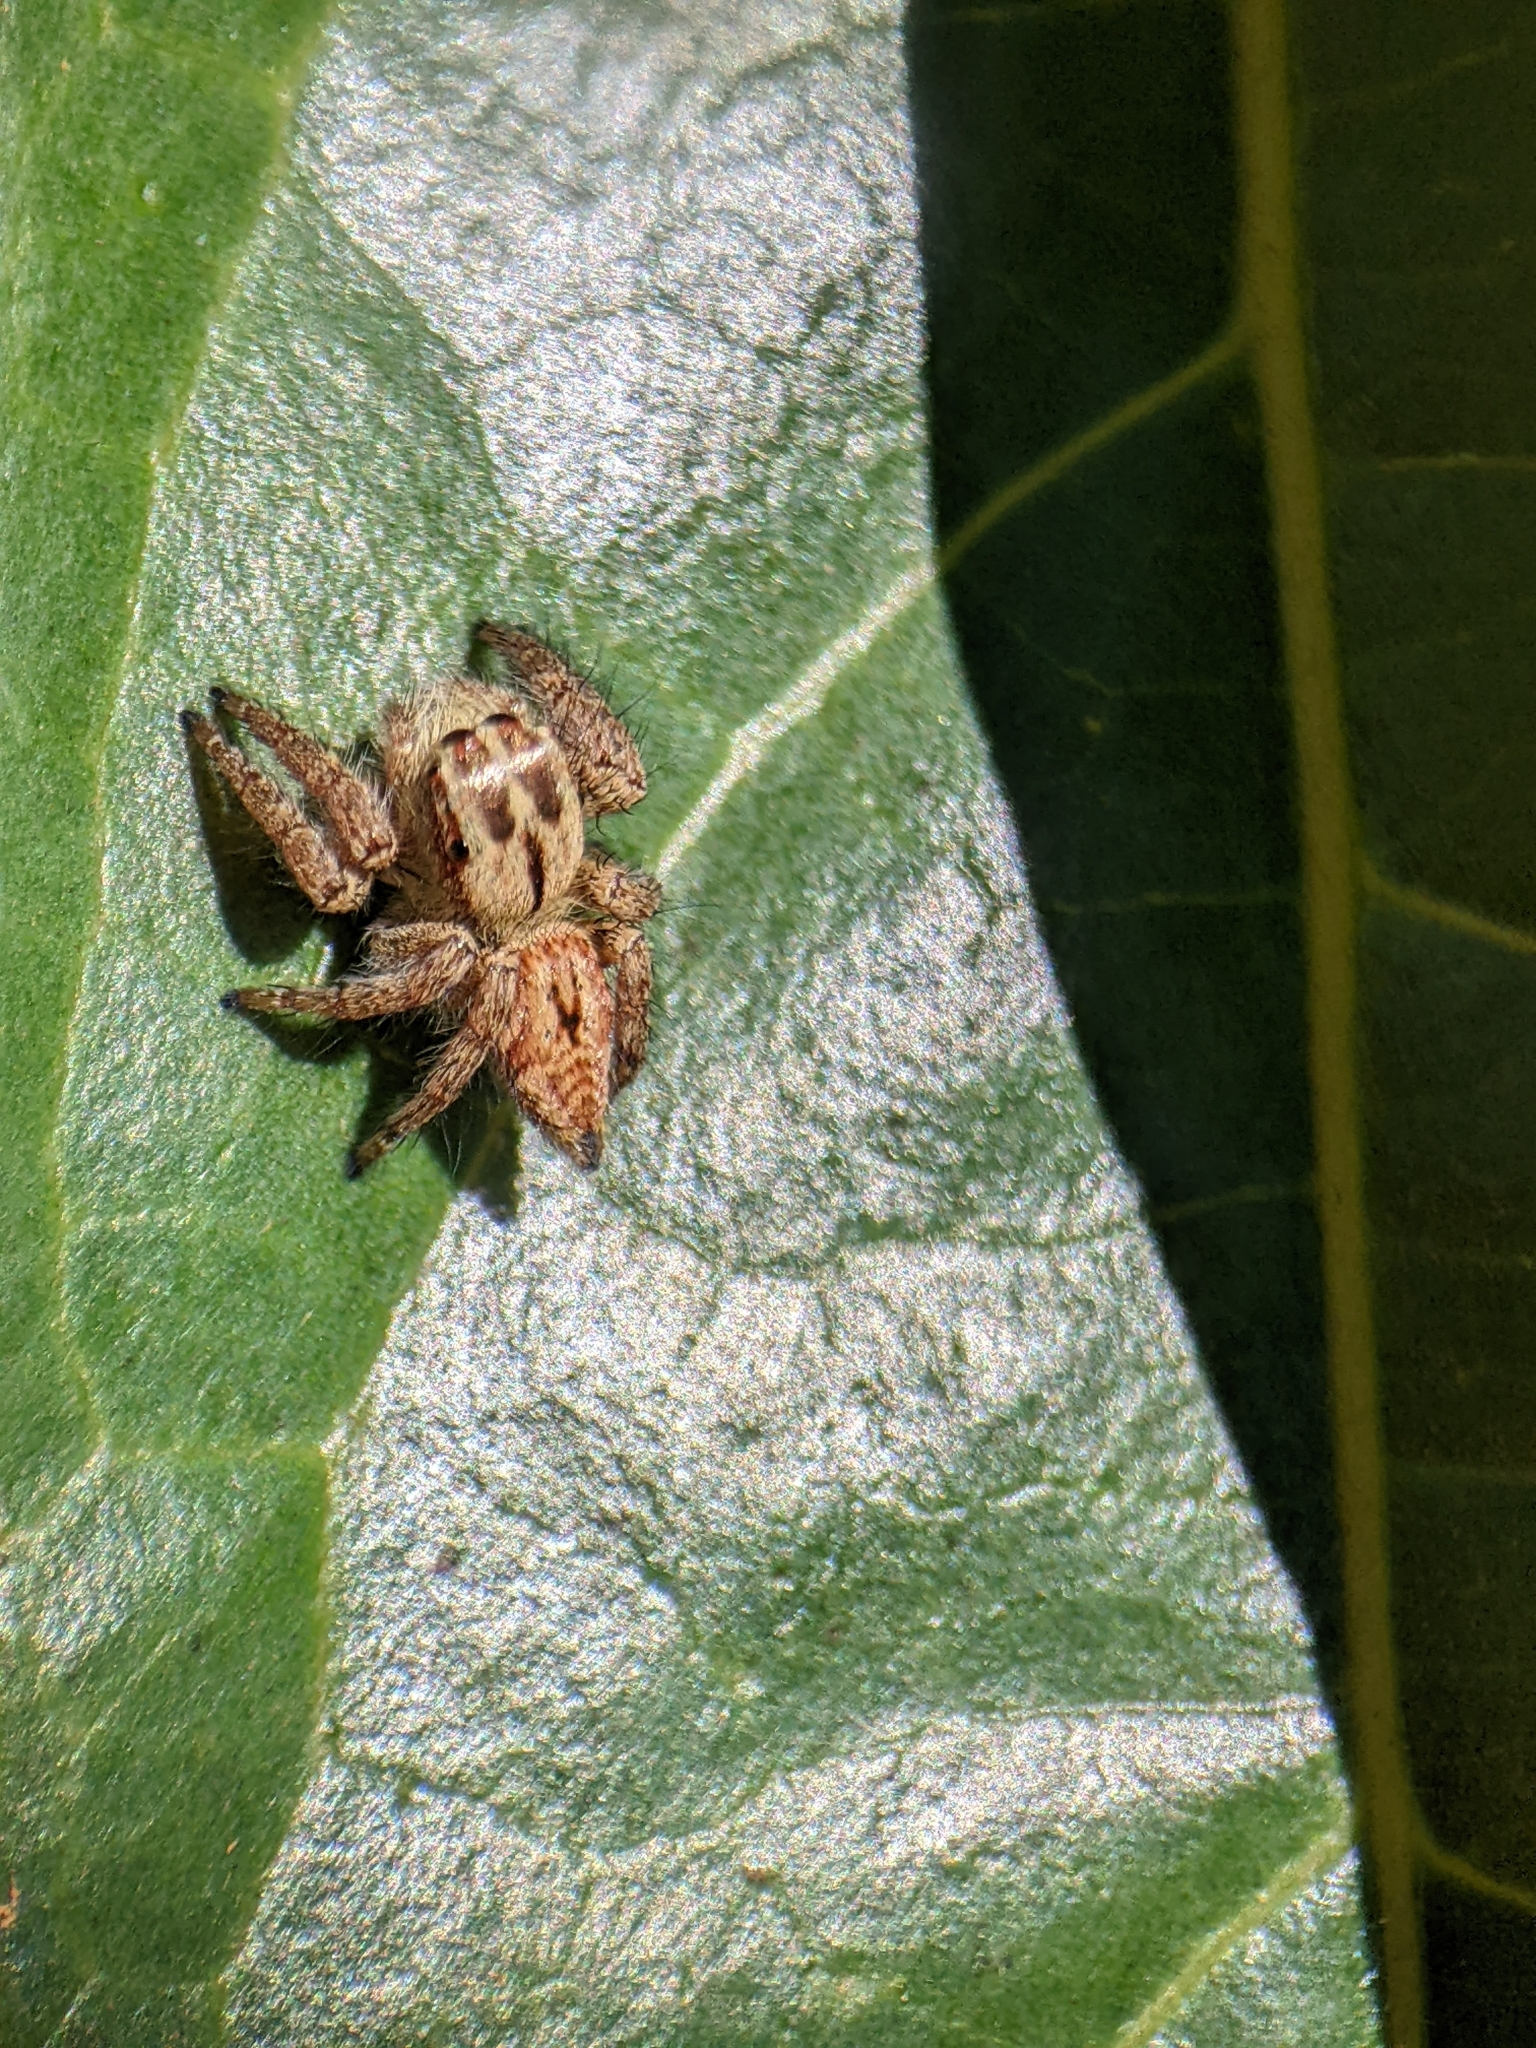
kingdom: Animalia
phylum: Arthropoda
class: Arachnida
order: Araneae
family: Salticidae
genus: Carrhotus
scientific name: Carrhotus viduus
